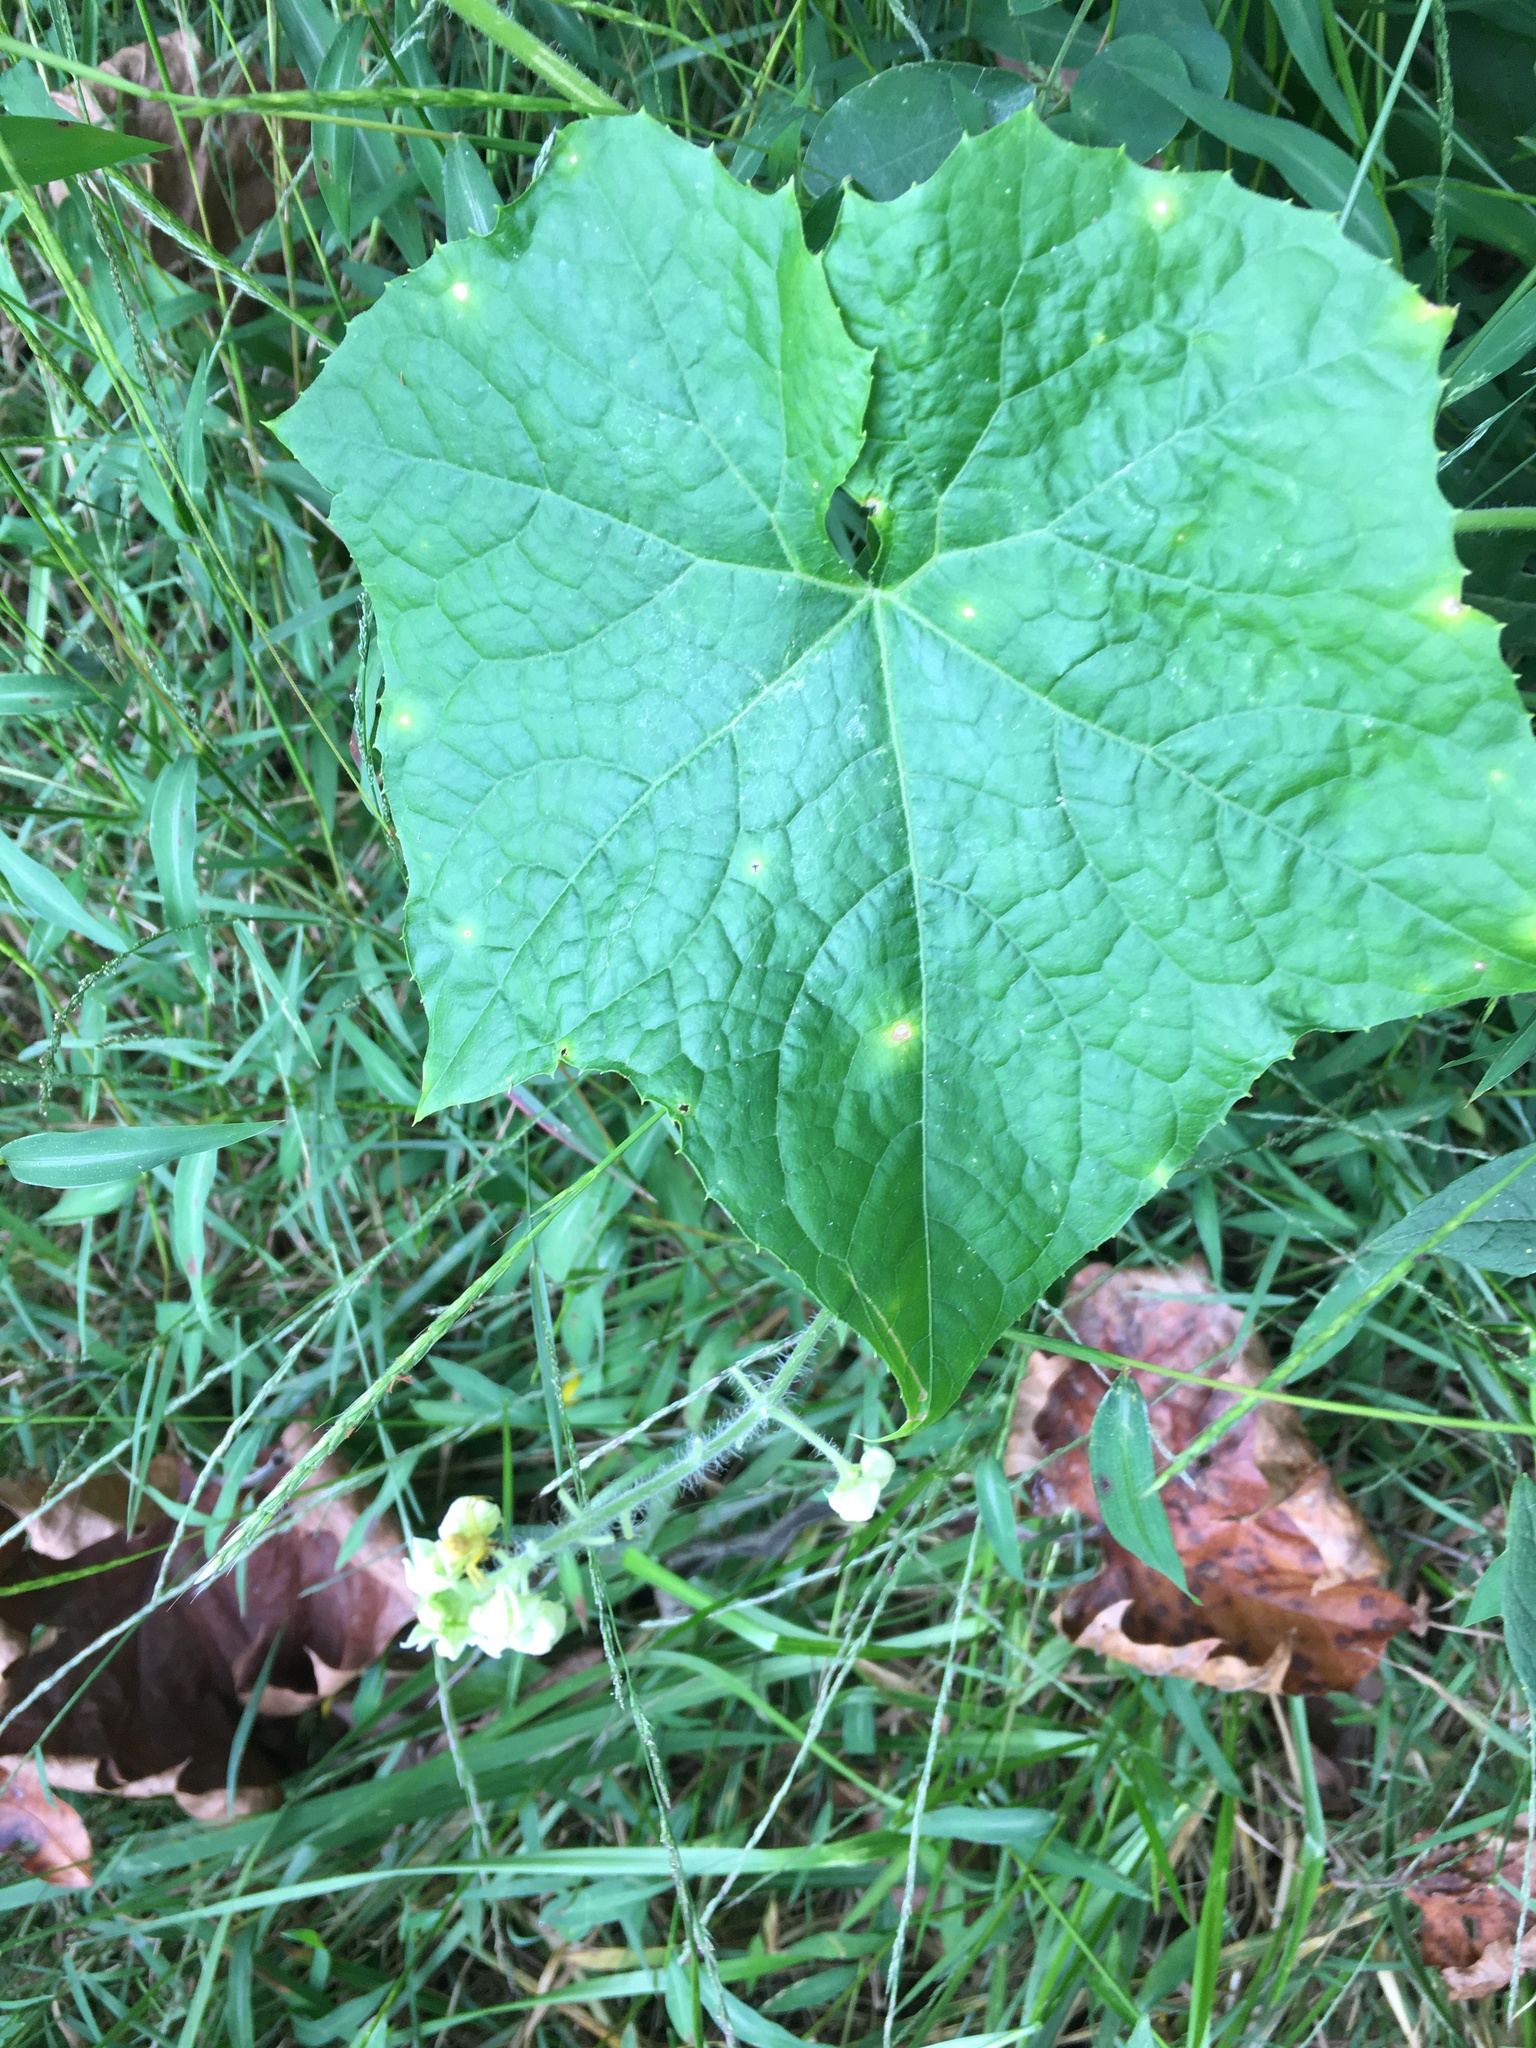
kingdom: Plantae
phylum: Tracheophyta
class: Magnoliopsida
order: Cucurbitales
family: Cucurbitaceae
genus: Sicyos
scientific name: Sicyos angulatus
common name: Angled burr cucumber
